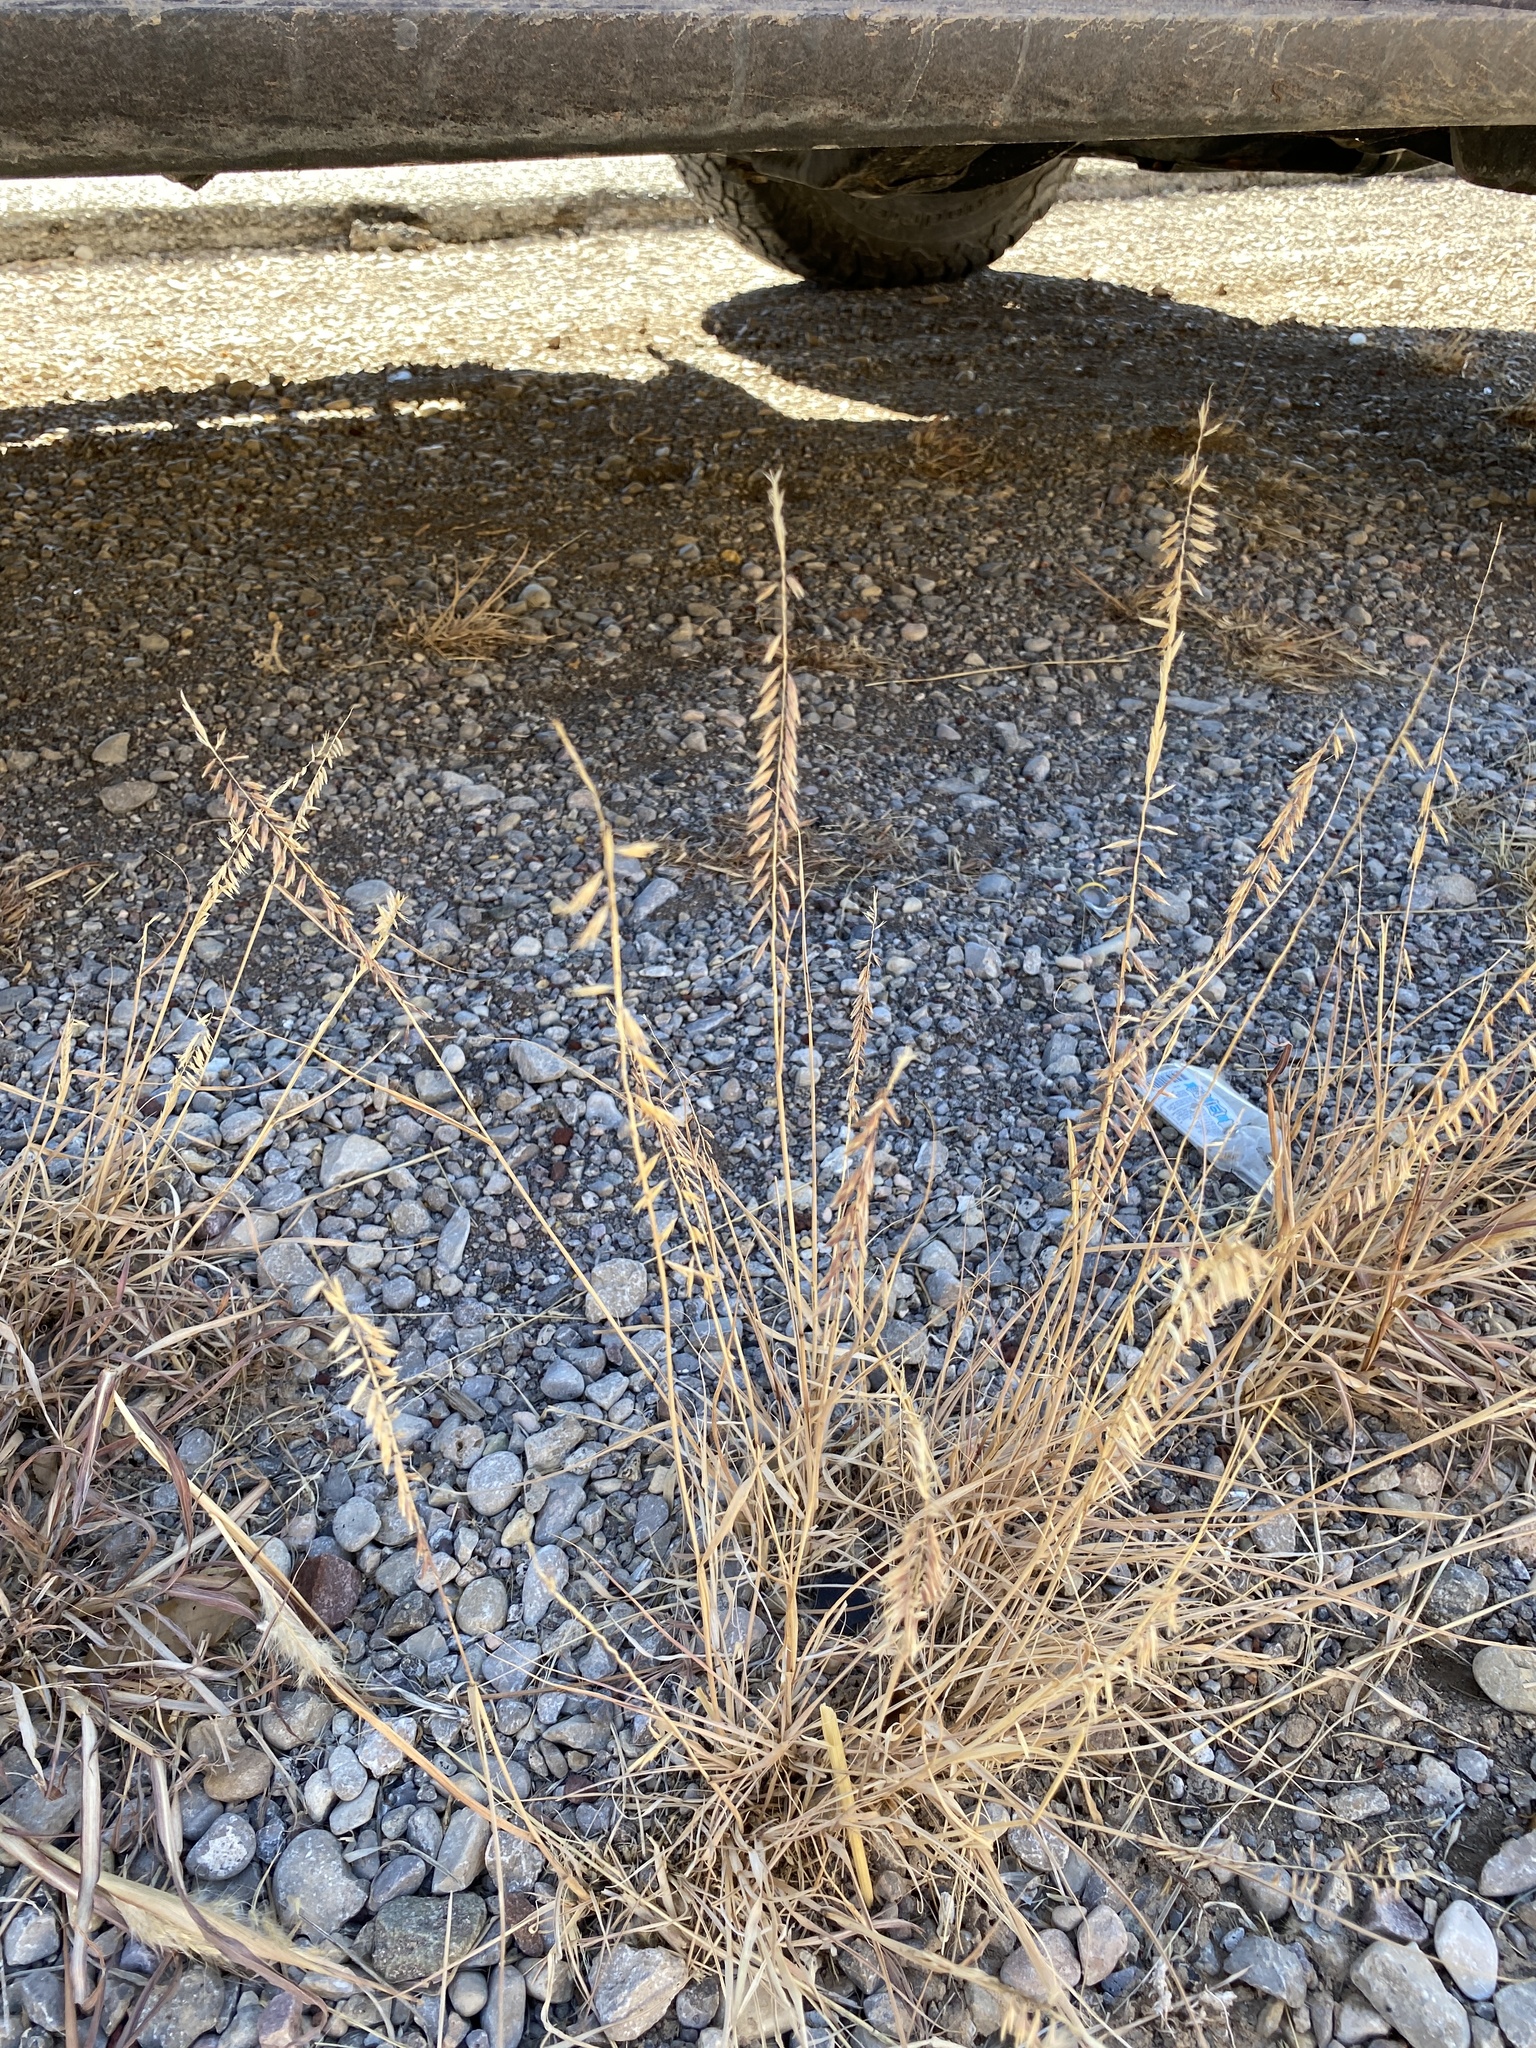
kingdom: Plantae
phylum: Tracheophyta
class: Liliopsida
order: Poales
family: Poaceae
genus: Bouteloua
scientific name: Bouteloua curtipendula
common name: Side-oats grama
